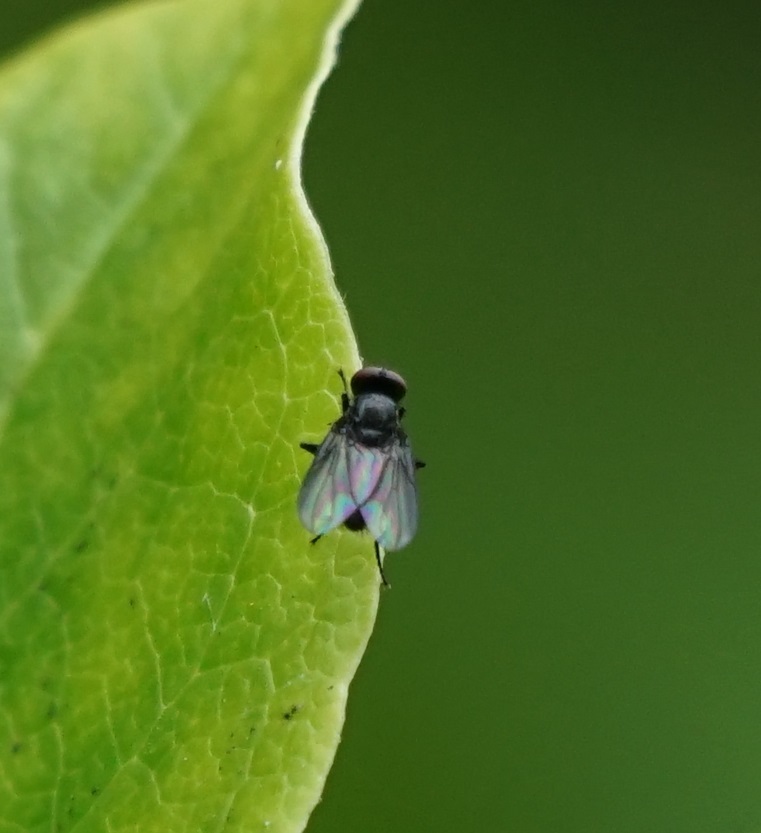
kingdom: Animalia
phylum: Arthropoda
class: Insecta
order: Diptera
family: Calliphoridae
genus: Melanomya
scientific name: Melanomya nana
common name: Little black blowfly
